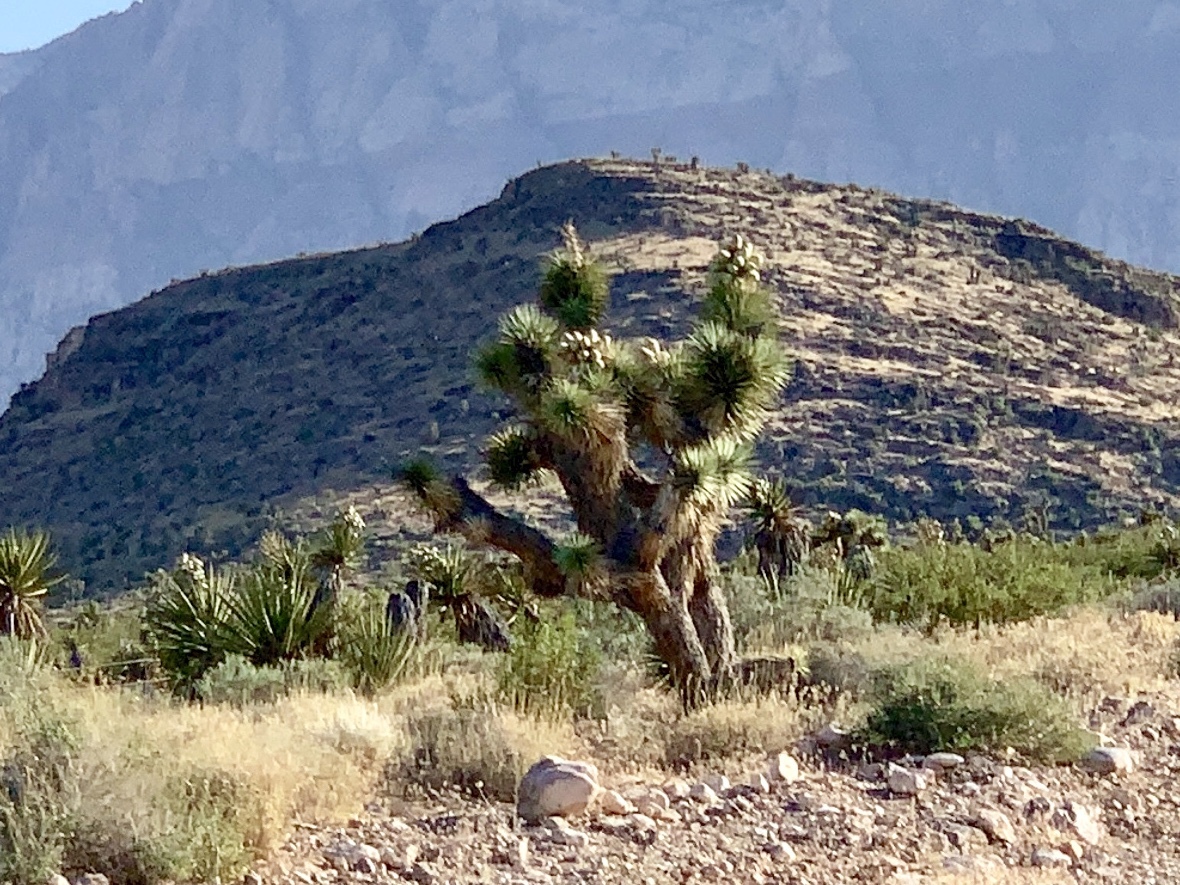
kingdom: Plantae
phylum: Tracheophyta
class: Liliopsida
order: Asparagales
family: Asparagaceae
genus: Yucca
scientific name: Yucca brevifolia
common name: Joshua tree
